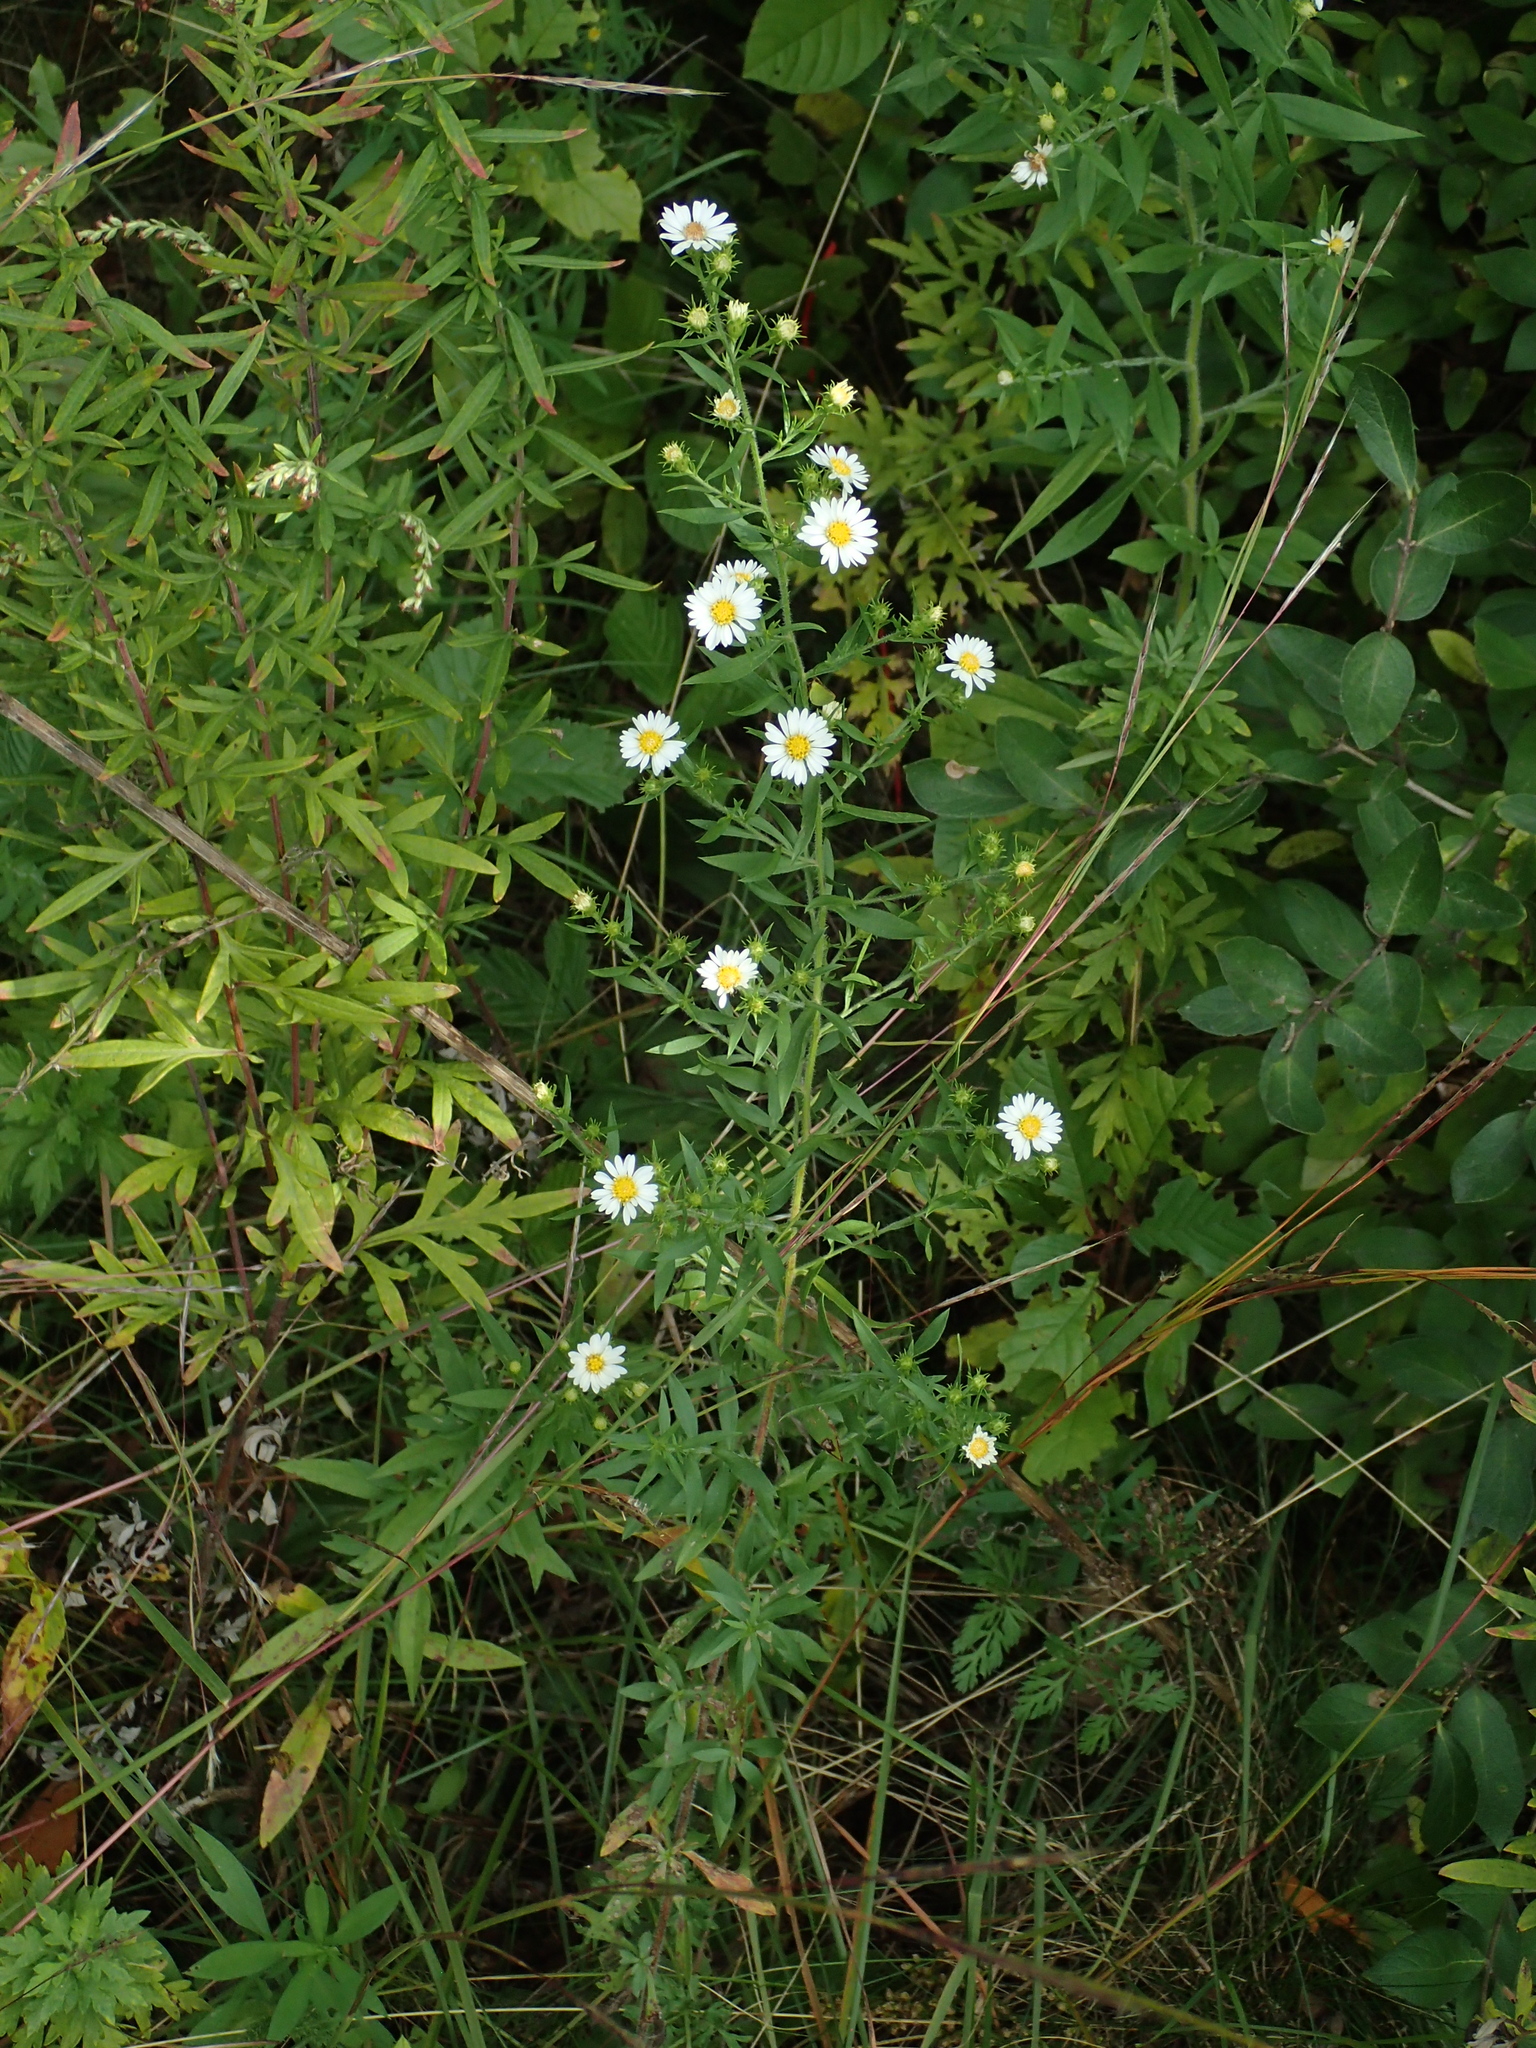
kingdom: Plantae
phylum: Tracheophyta
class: Magnoliopsida
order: Asterales
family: Asteraceae
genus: Symphyotrichum
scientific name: Symphyotrichum pilosum
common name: Awl aster
